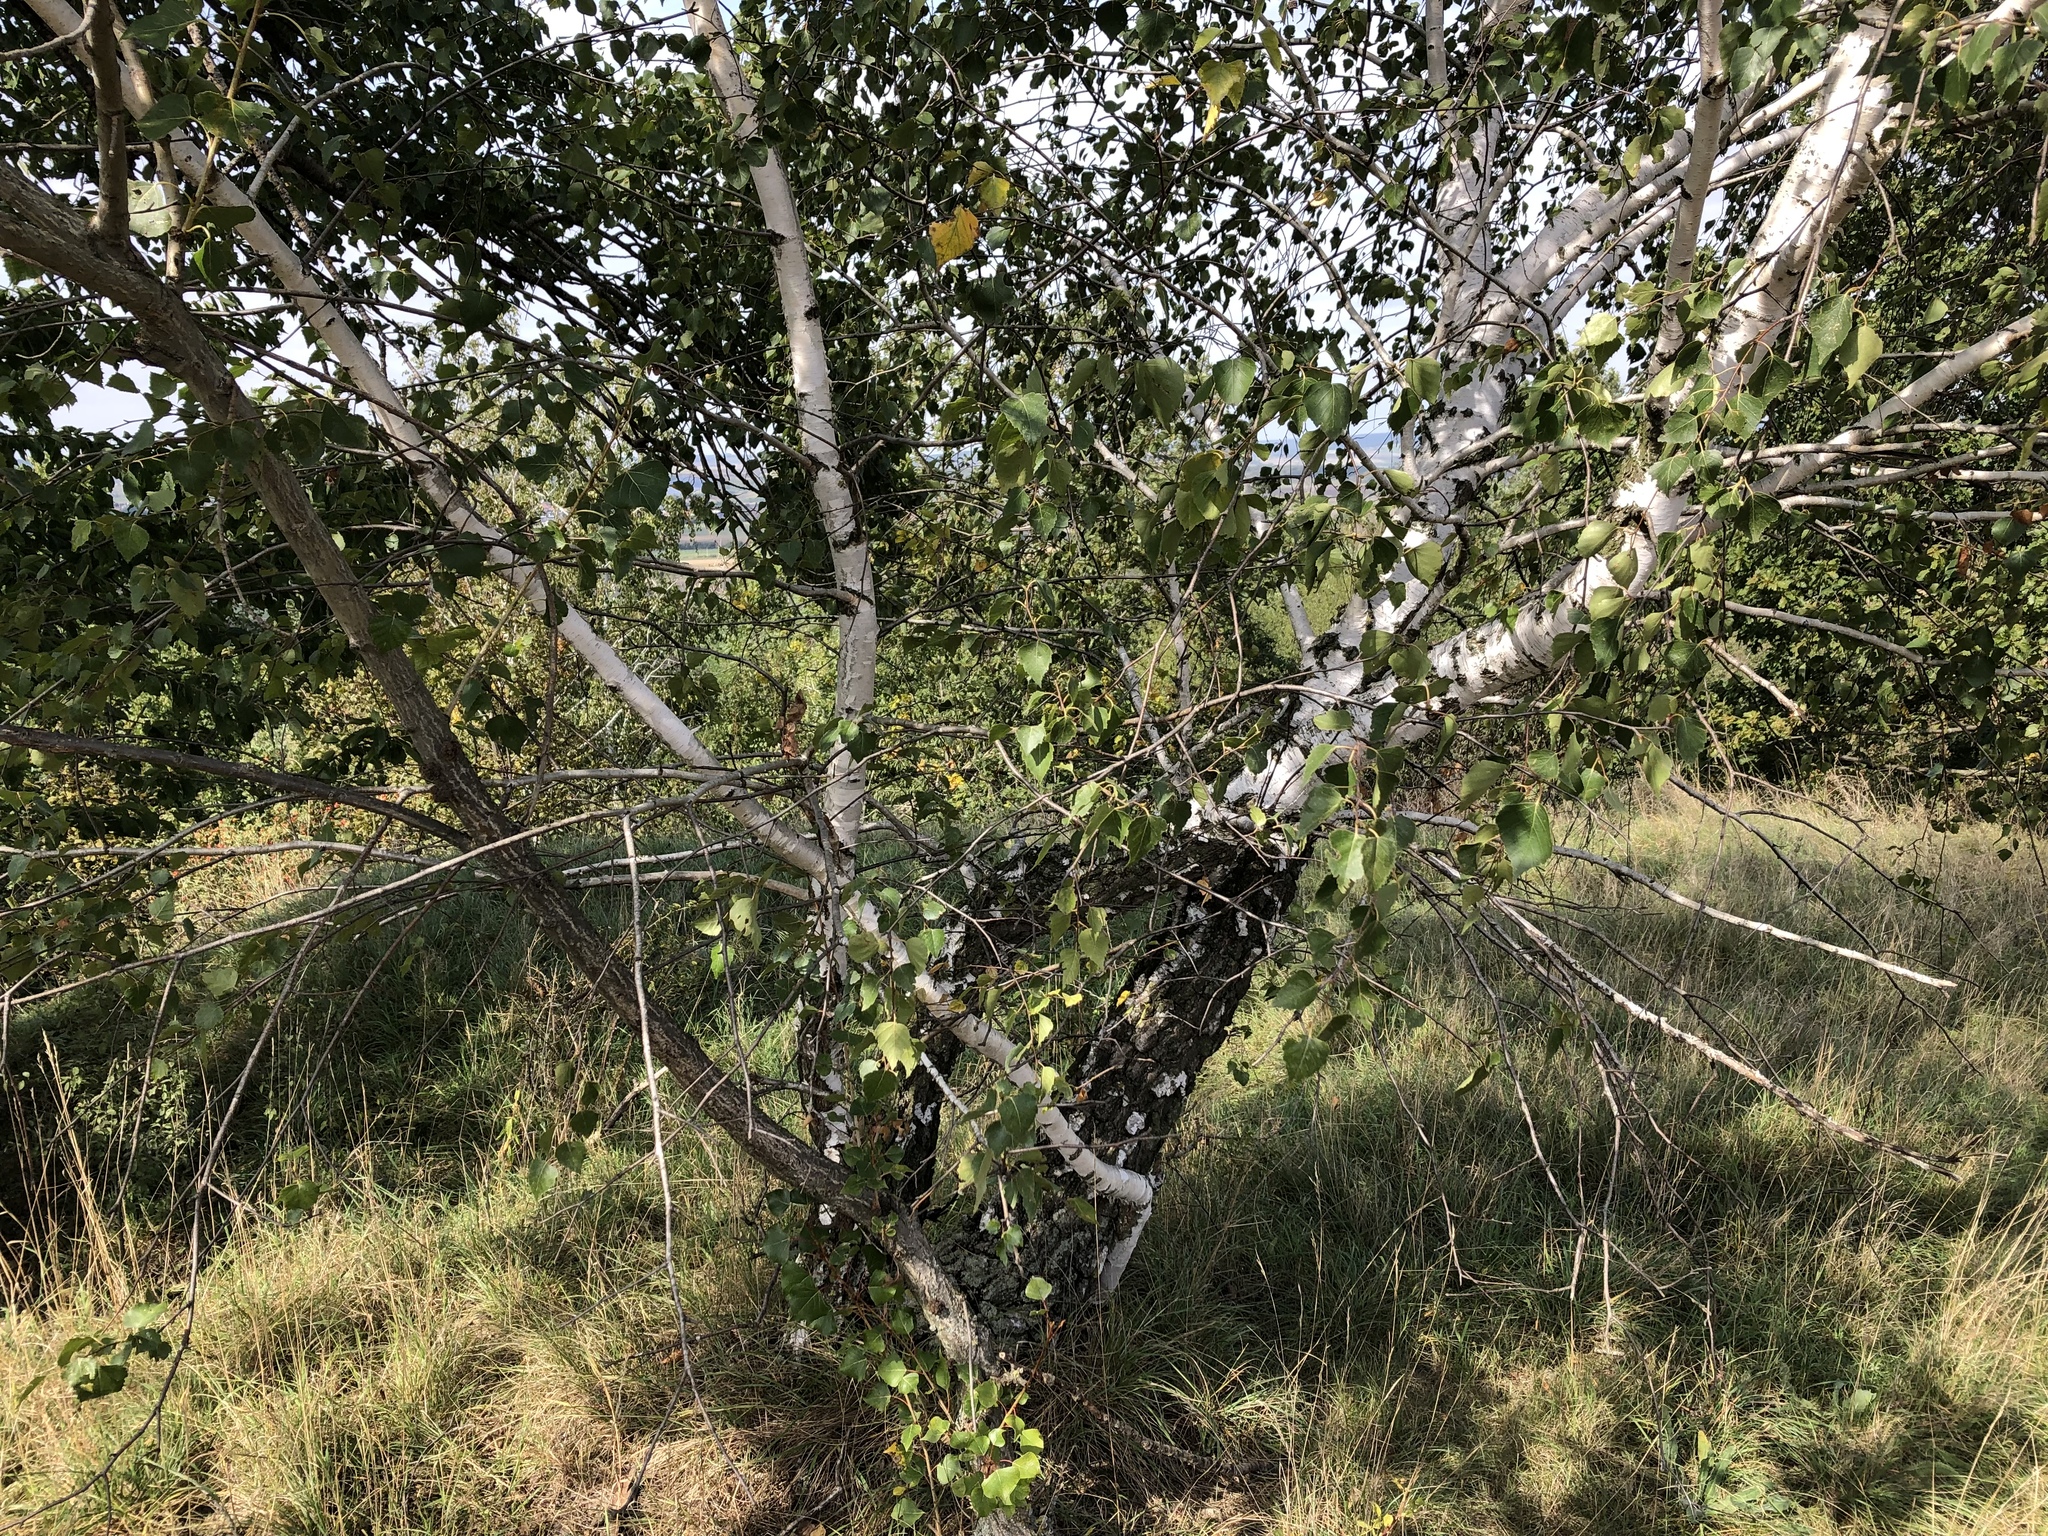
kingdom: Plantae
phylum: Tracheophyta
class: Magnoliopsida
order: Fagales
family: Betulaceae
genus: Betula
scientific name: Betula pendula
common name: Silver birch
